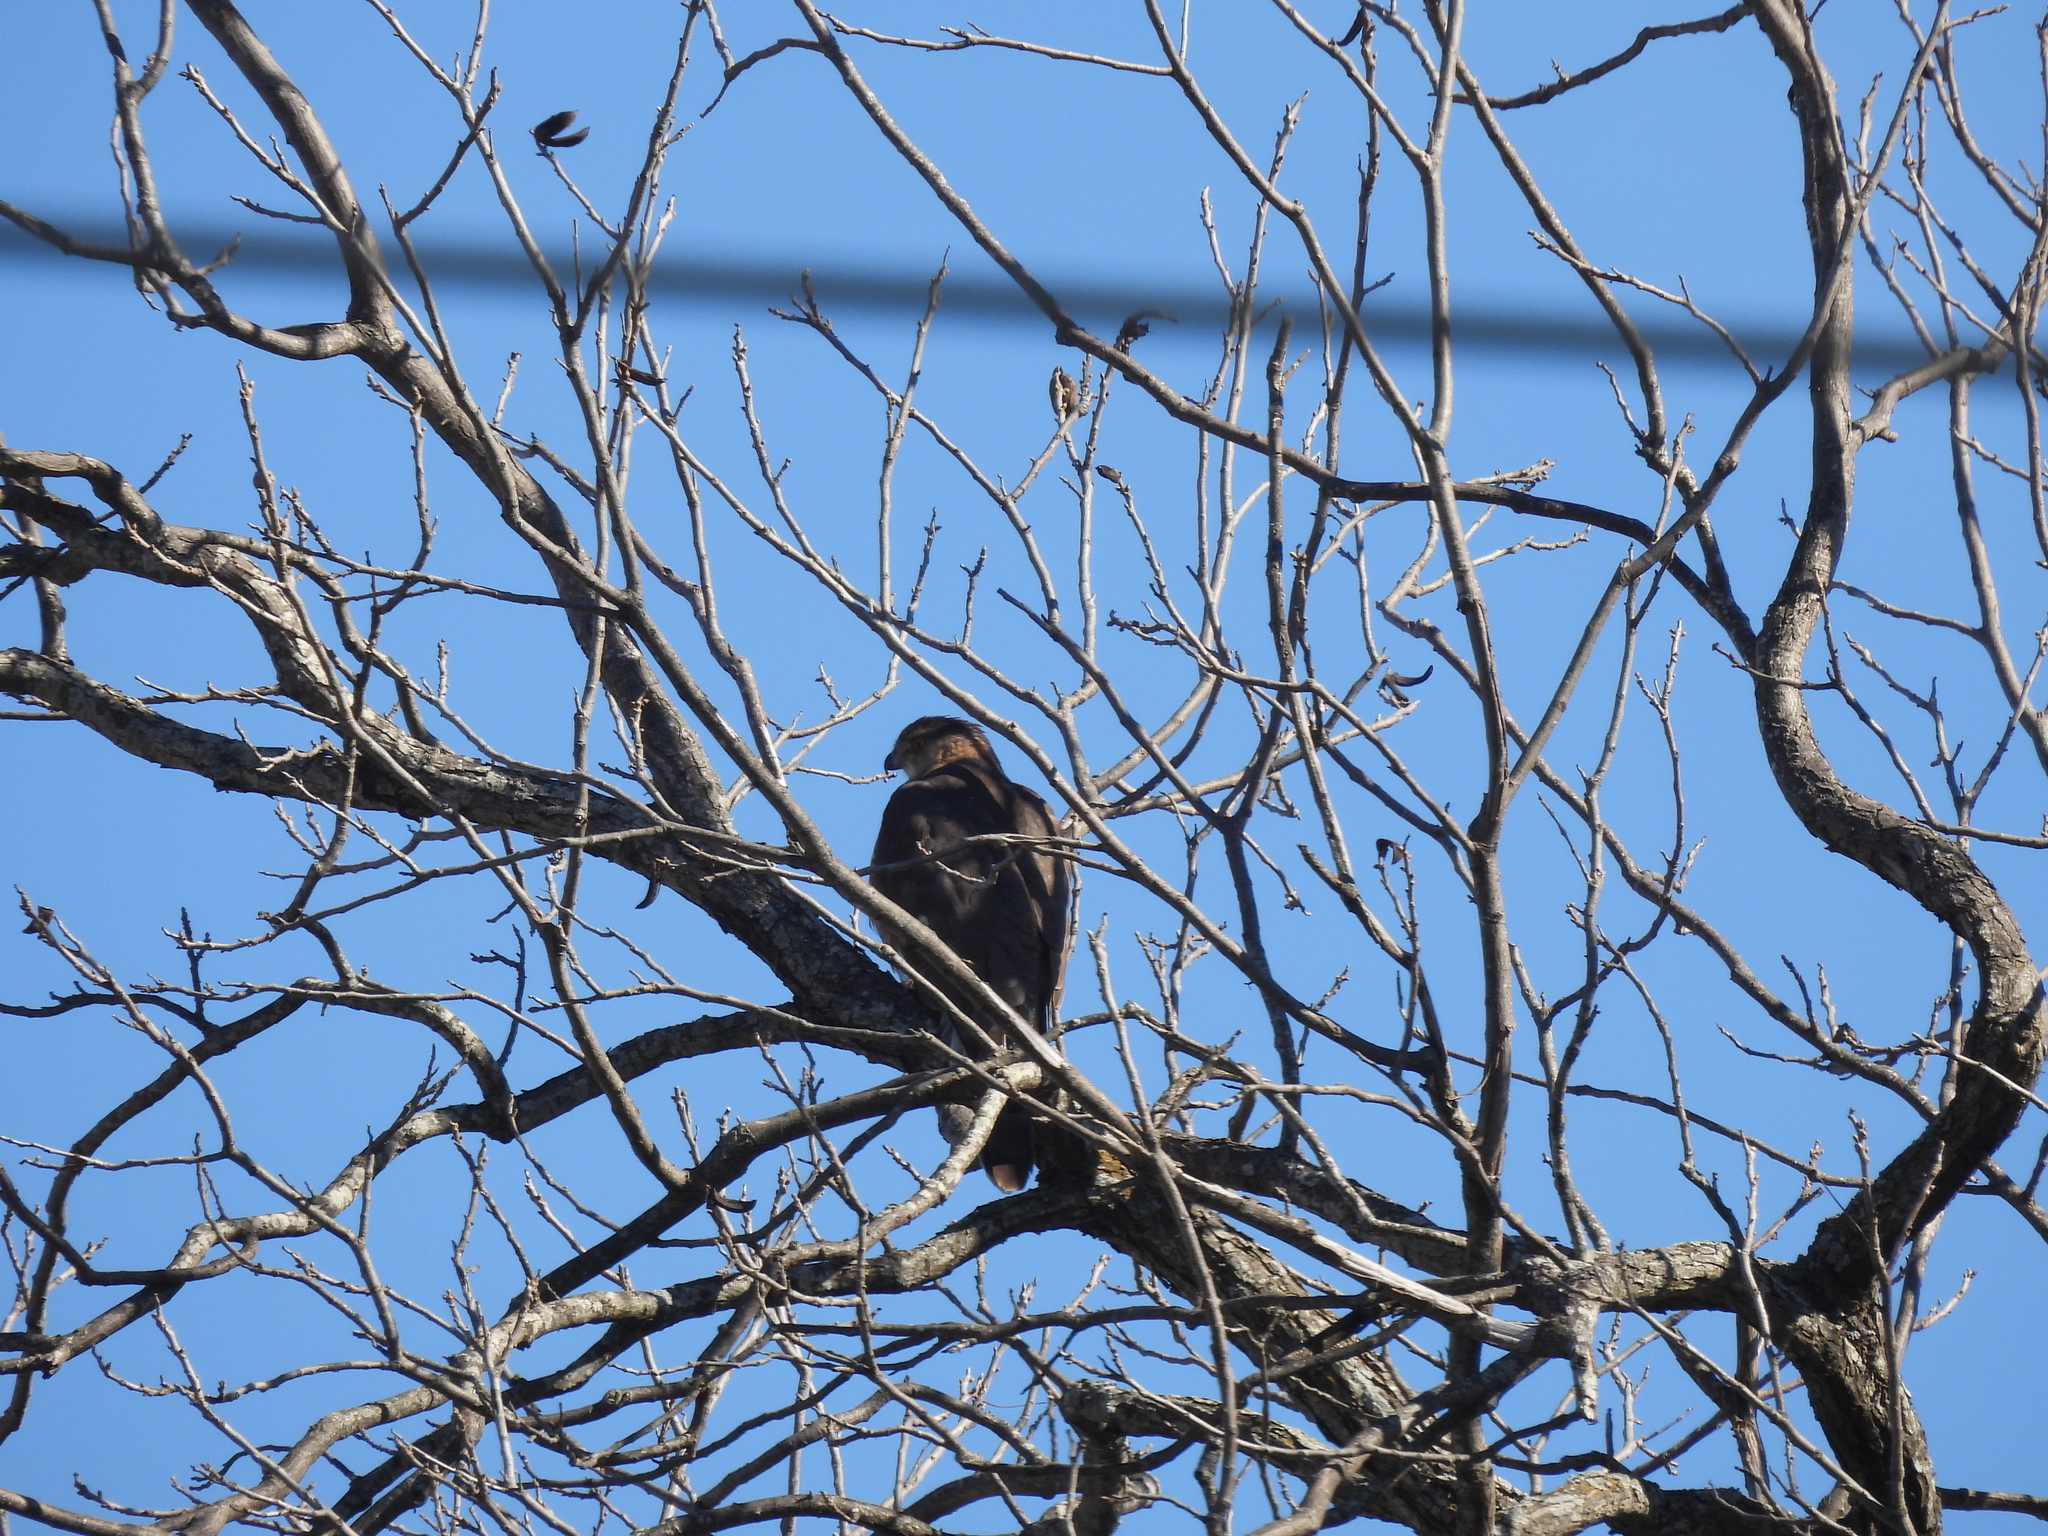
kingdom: Animalia
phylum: Chordata
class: Aves
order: Accipitriformes
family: Accipitridae
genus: Accipiter
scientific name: Accipiter cooperii
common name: Cooper's hawk
